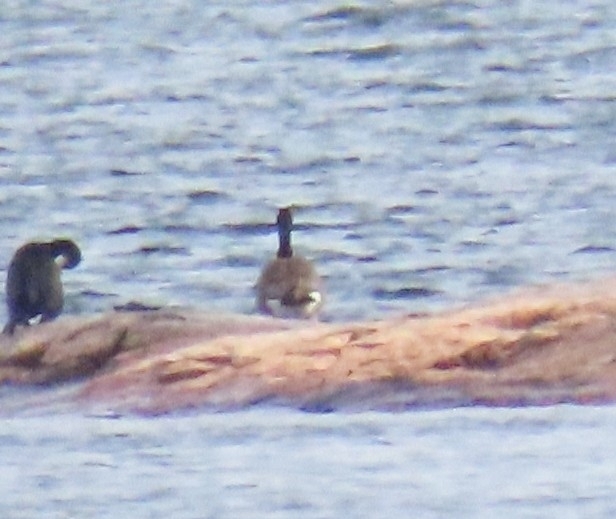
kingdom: Animalia
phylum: Chordata
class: Aves
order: Anseriformes
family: Anatidae
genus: Branta
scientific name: Branta canadensis
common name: Canada goose
